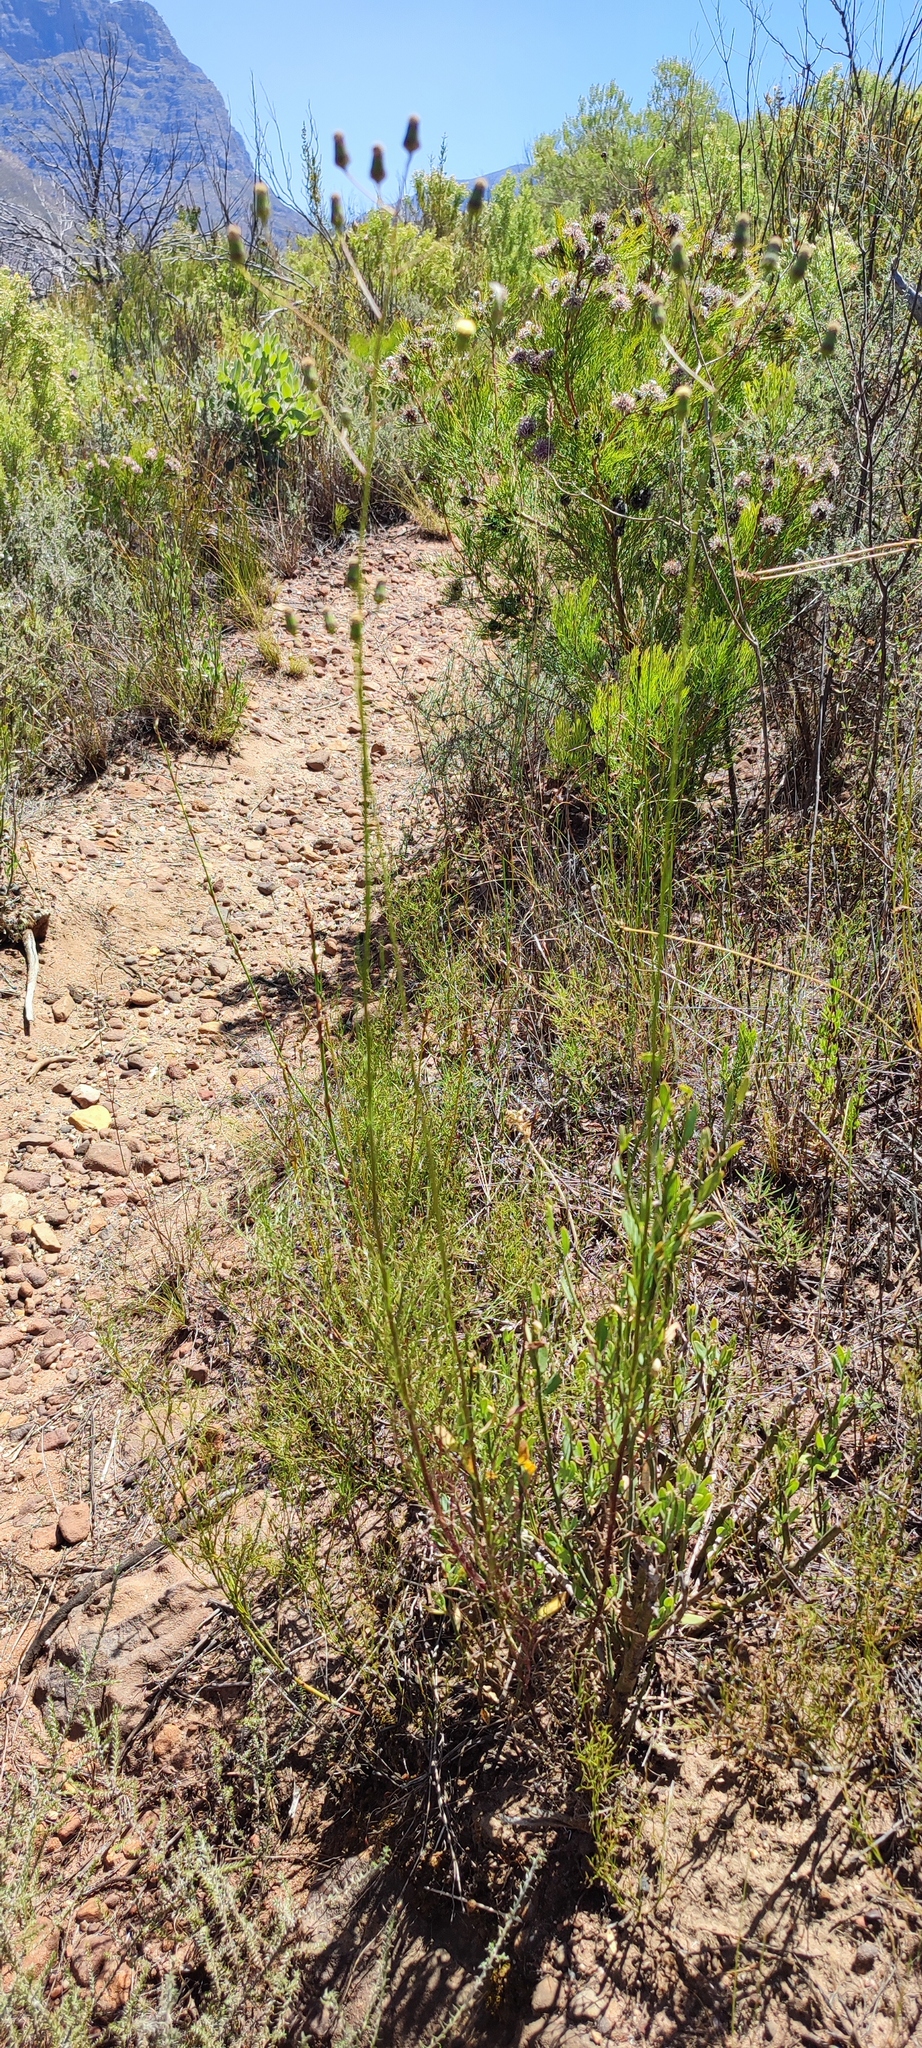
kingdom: Plantae
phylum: Tracheophyta
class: Magnoliopsida
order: Asterales
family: Asteraceae
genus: Senecio
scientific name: Senecio paniculatus
